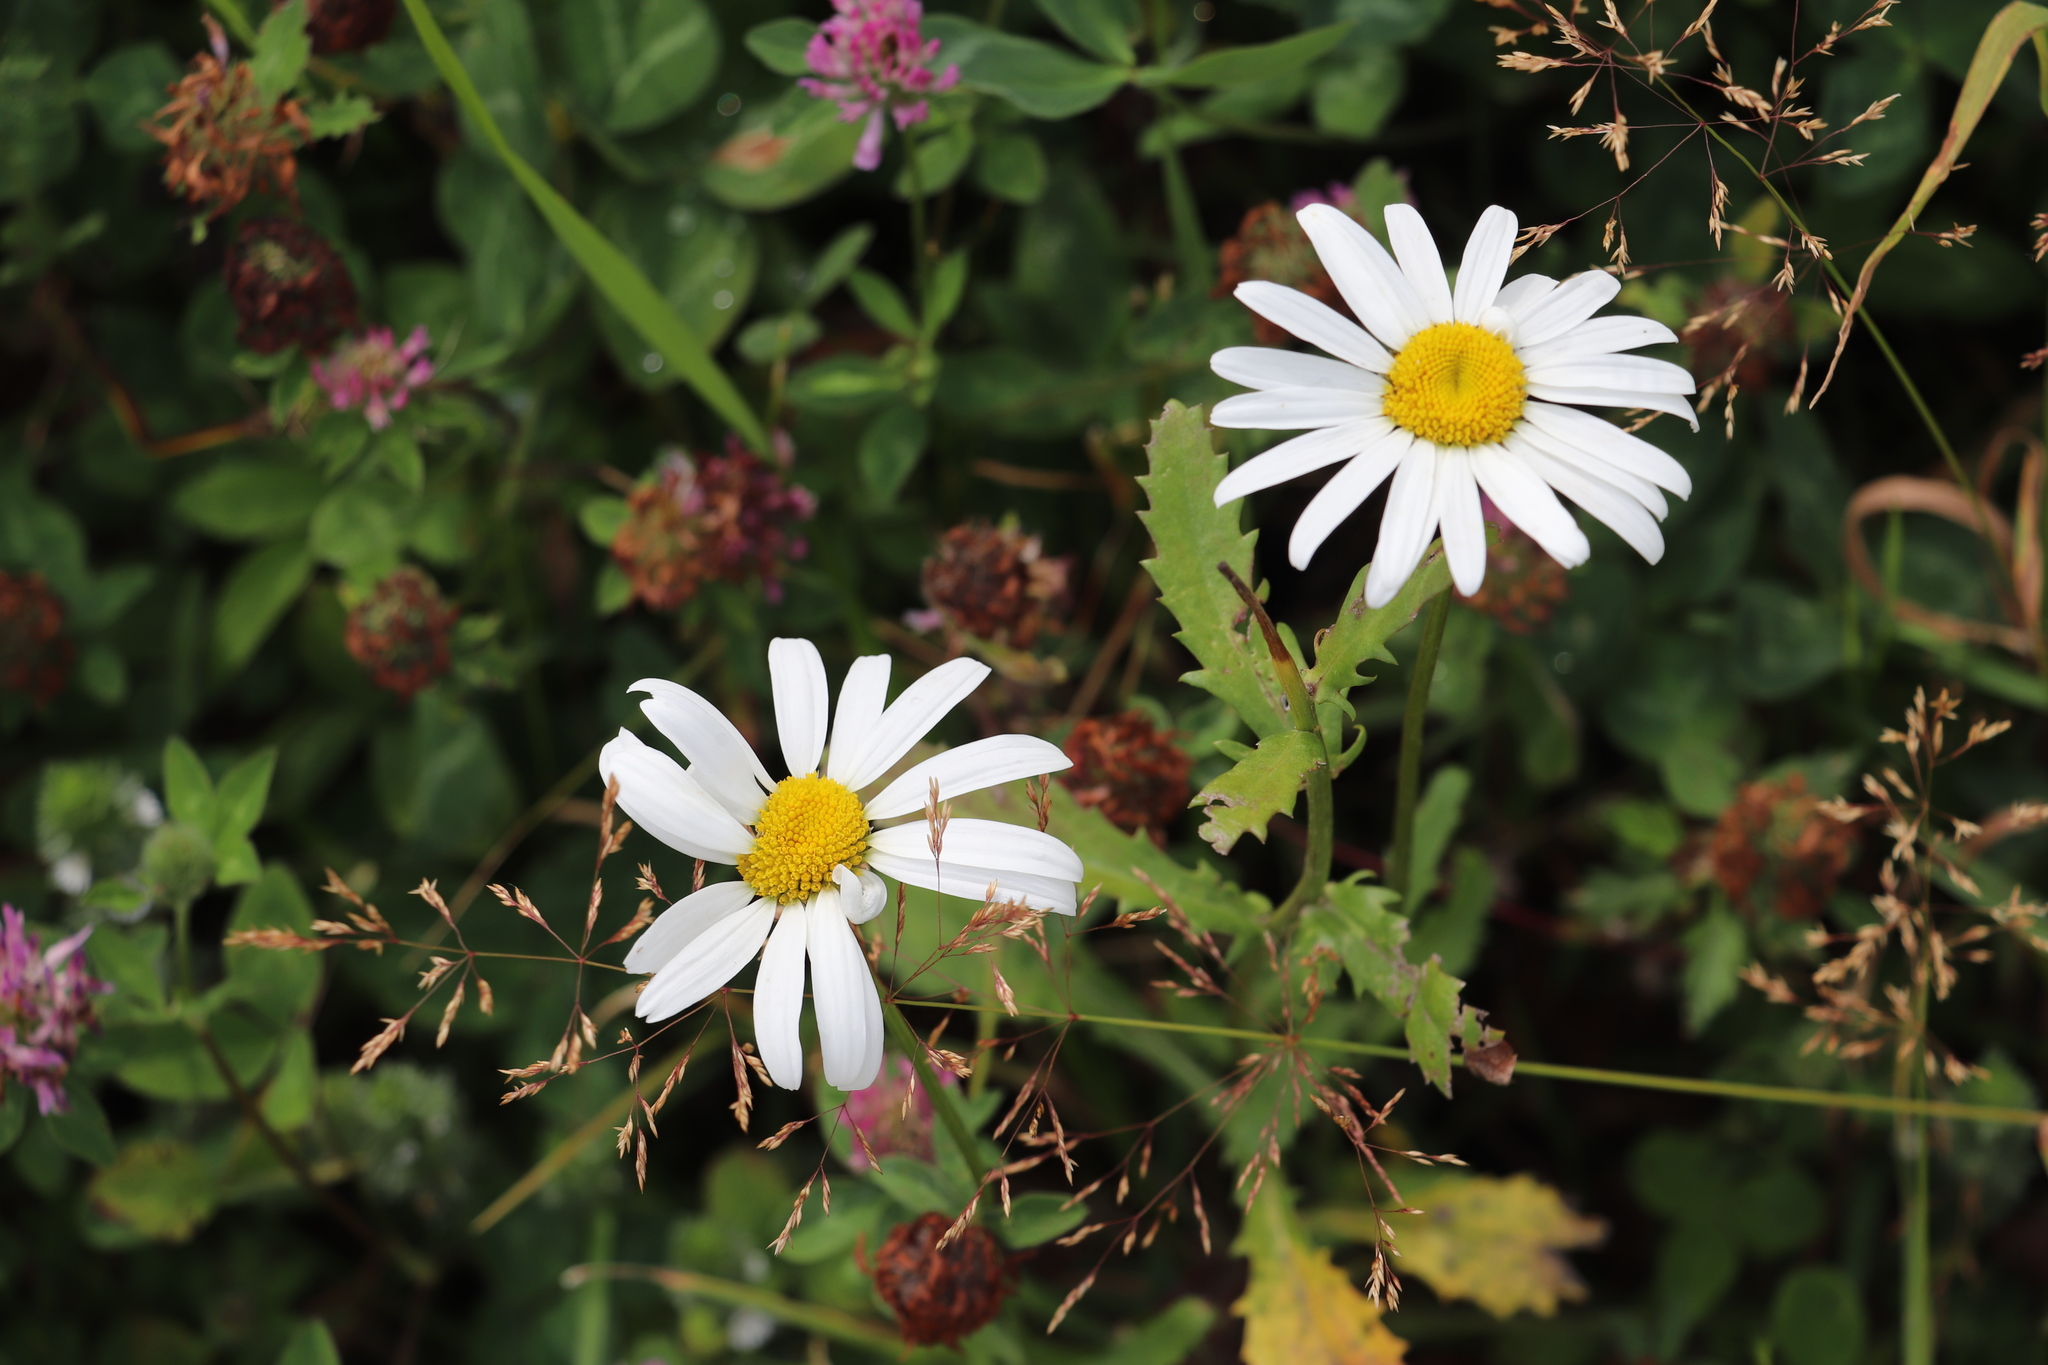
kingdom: Plantae
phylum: Tracheophyta
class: Magnoliopsida
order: Asterales
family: Asteraceae
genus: Leucanthemum
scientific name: Leucanthemum ircutianum
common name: Daisy
